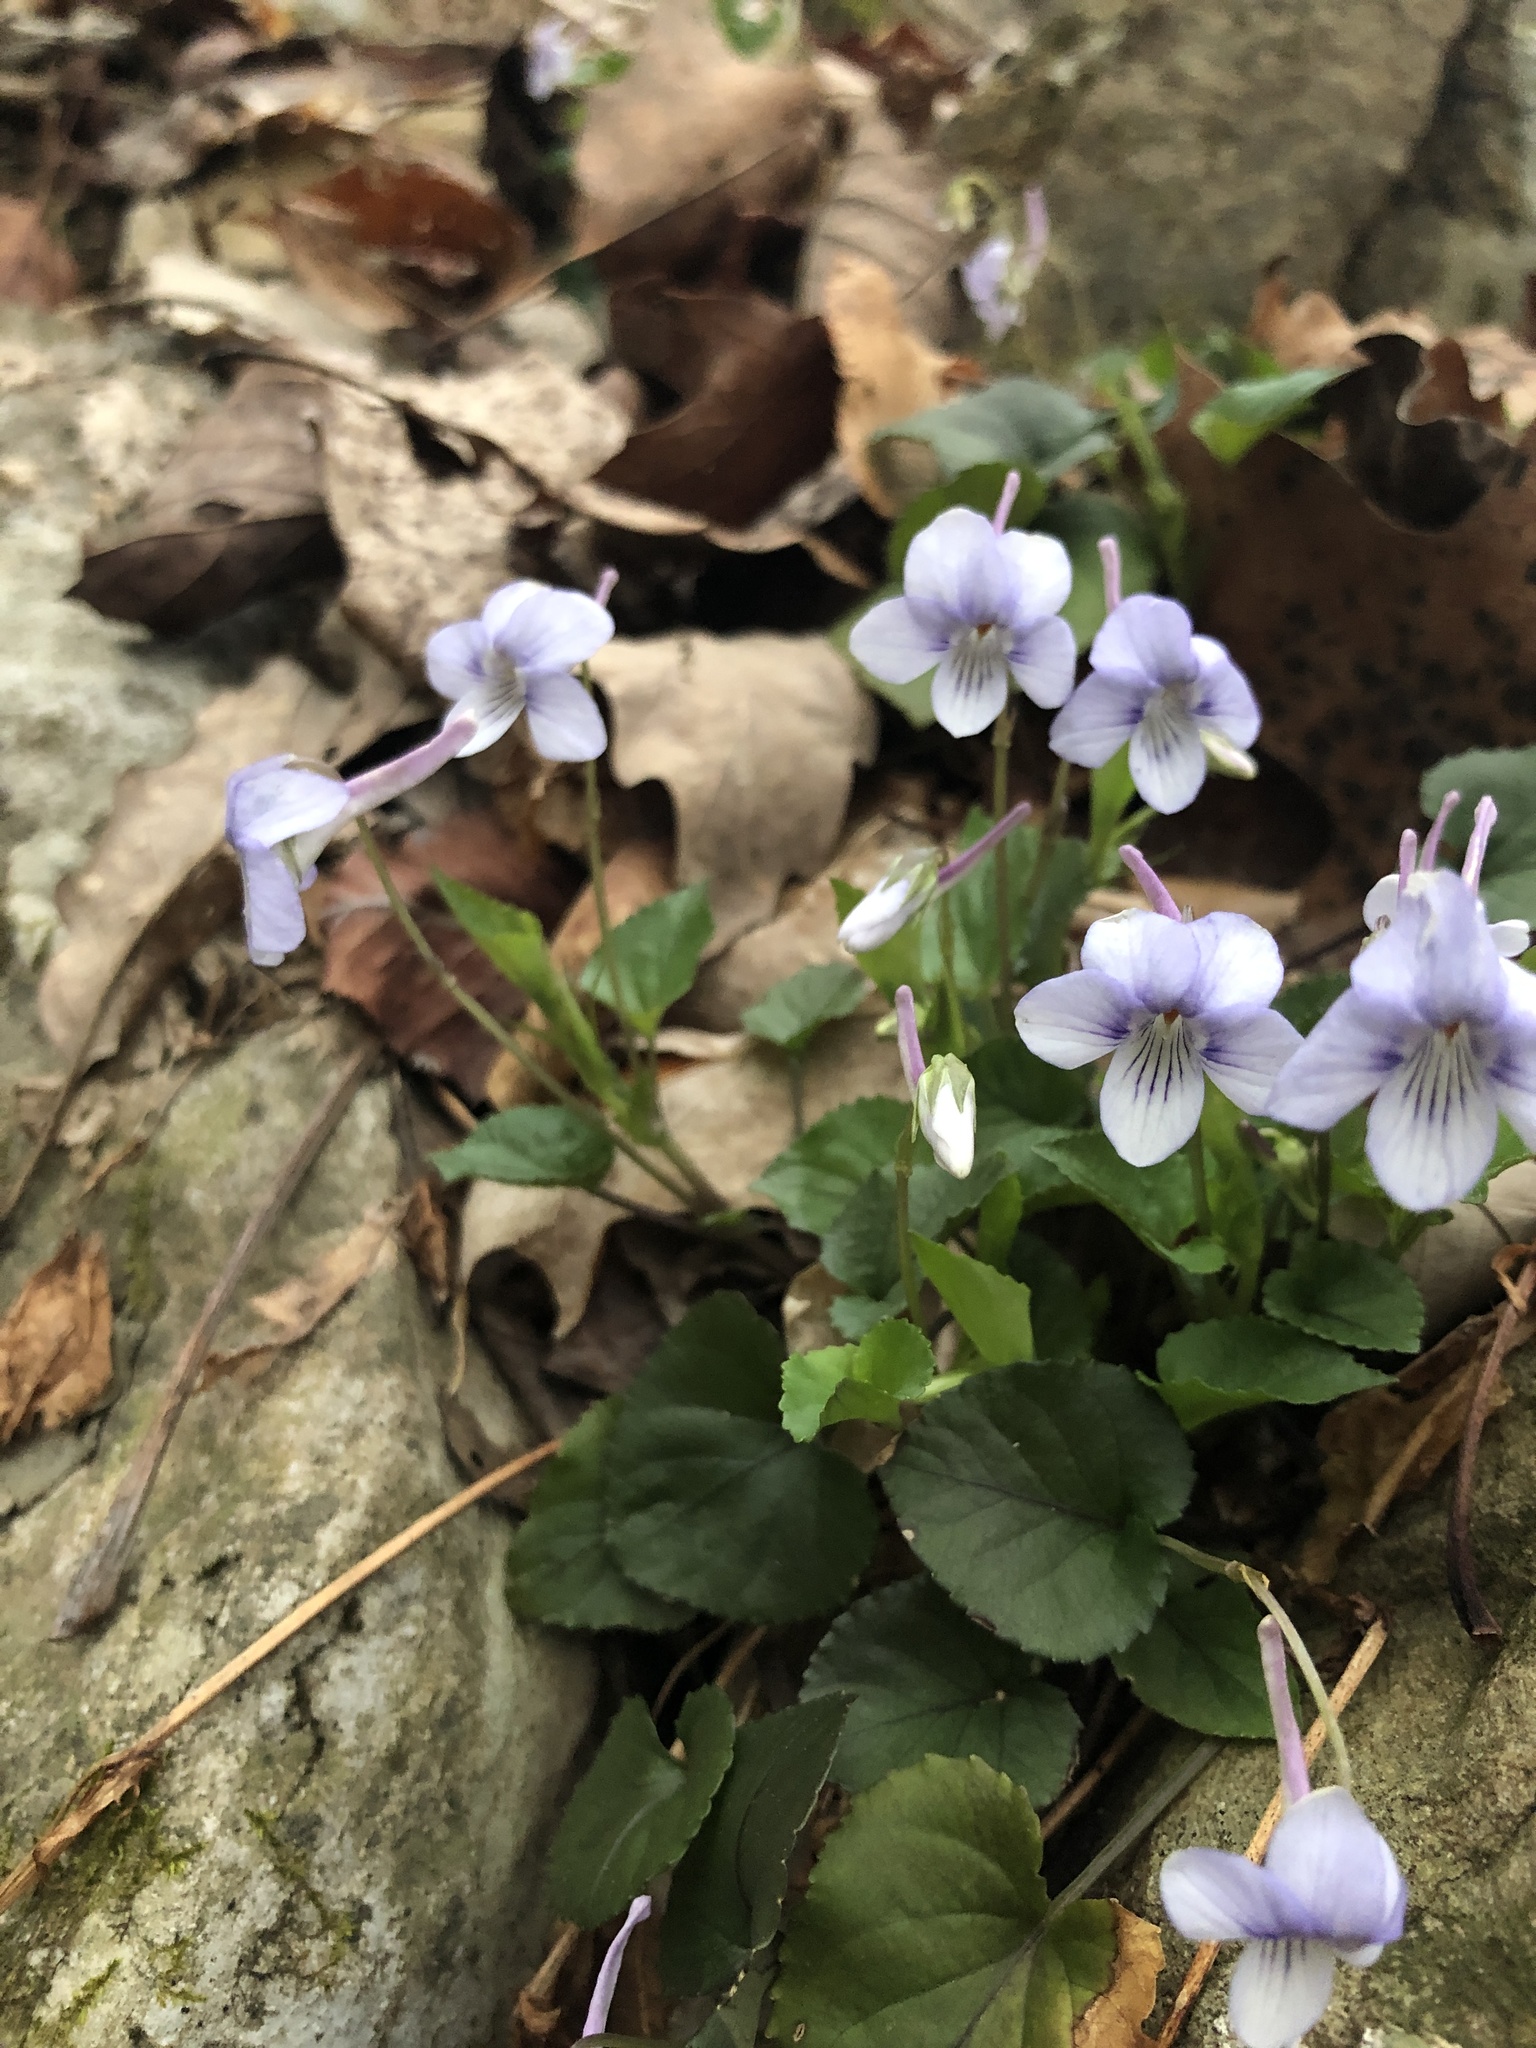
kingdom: Plantae
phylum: Tracheophyta
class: Magnoliopsida
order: Malpighiales
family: Violaceae
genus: Viola
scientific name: Viola rostrata
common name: Long-spur violet
